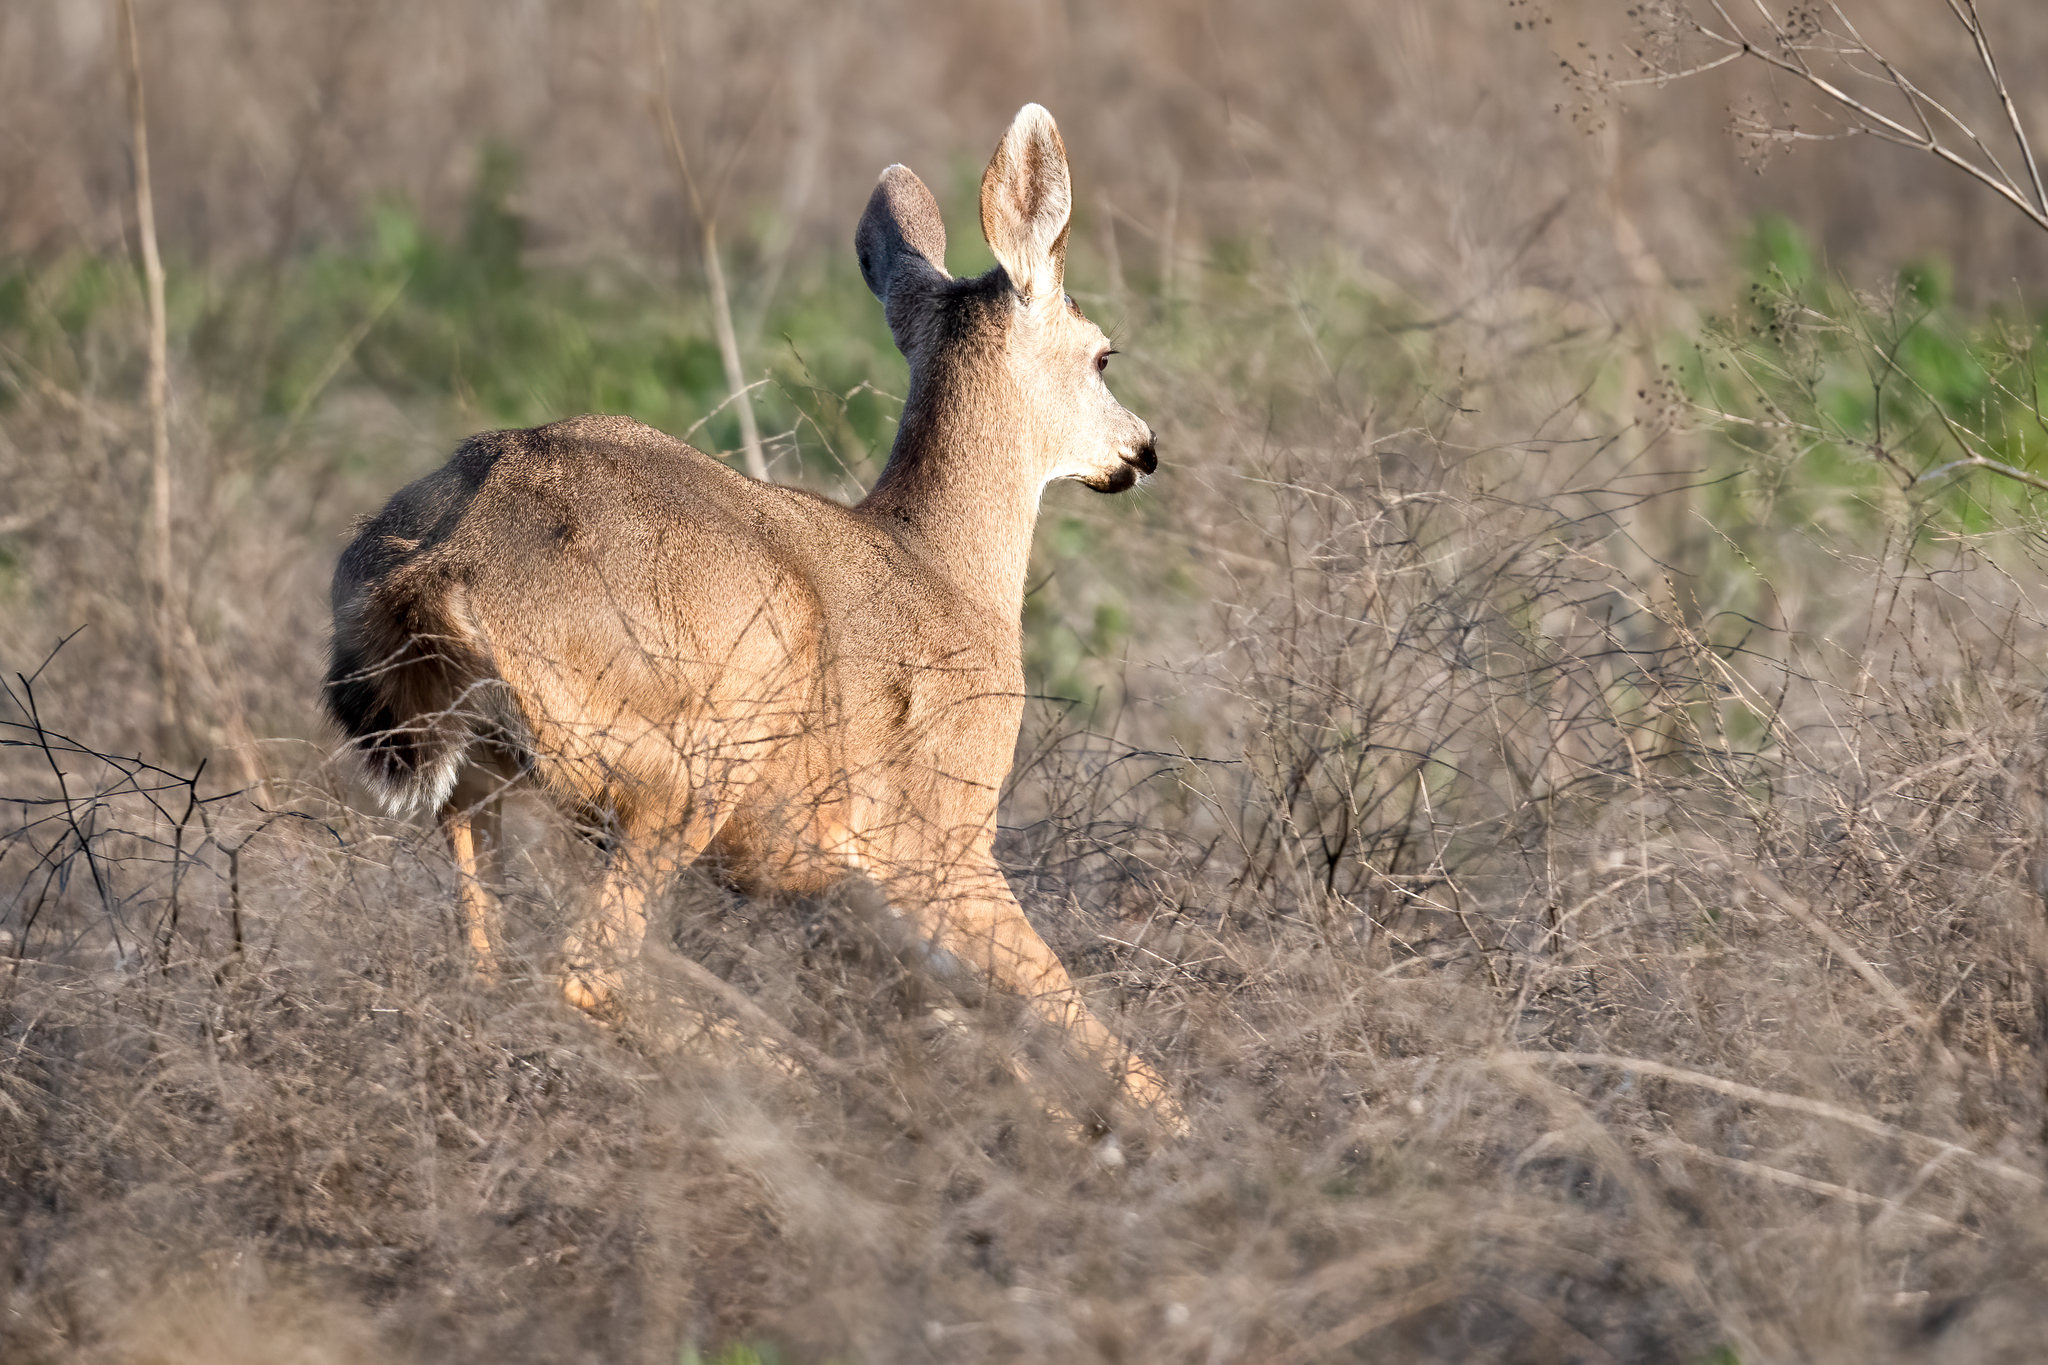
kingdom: Animalia
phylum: Chordata
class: Mammalia
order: Artiodactyla
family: Cervidae
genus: Odocoileus
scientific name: Odocoileus hemionus
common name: Mule deer
